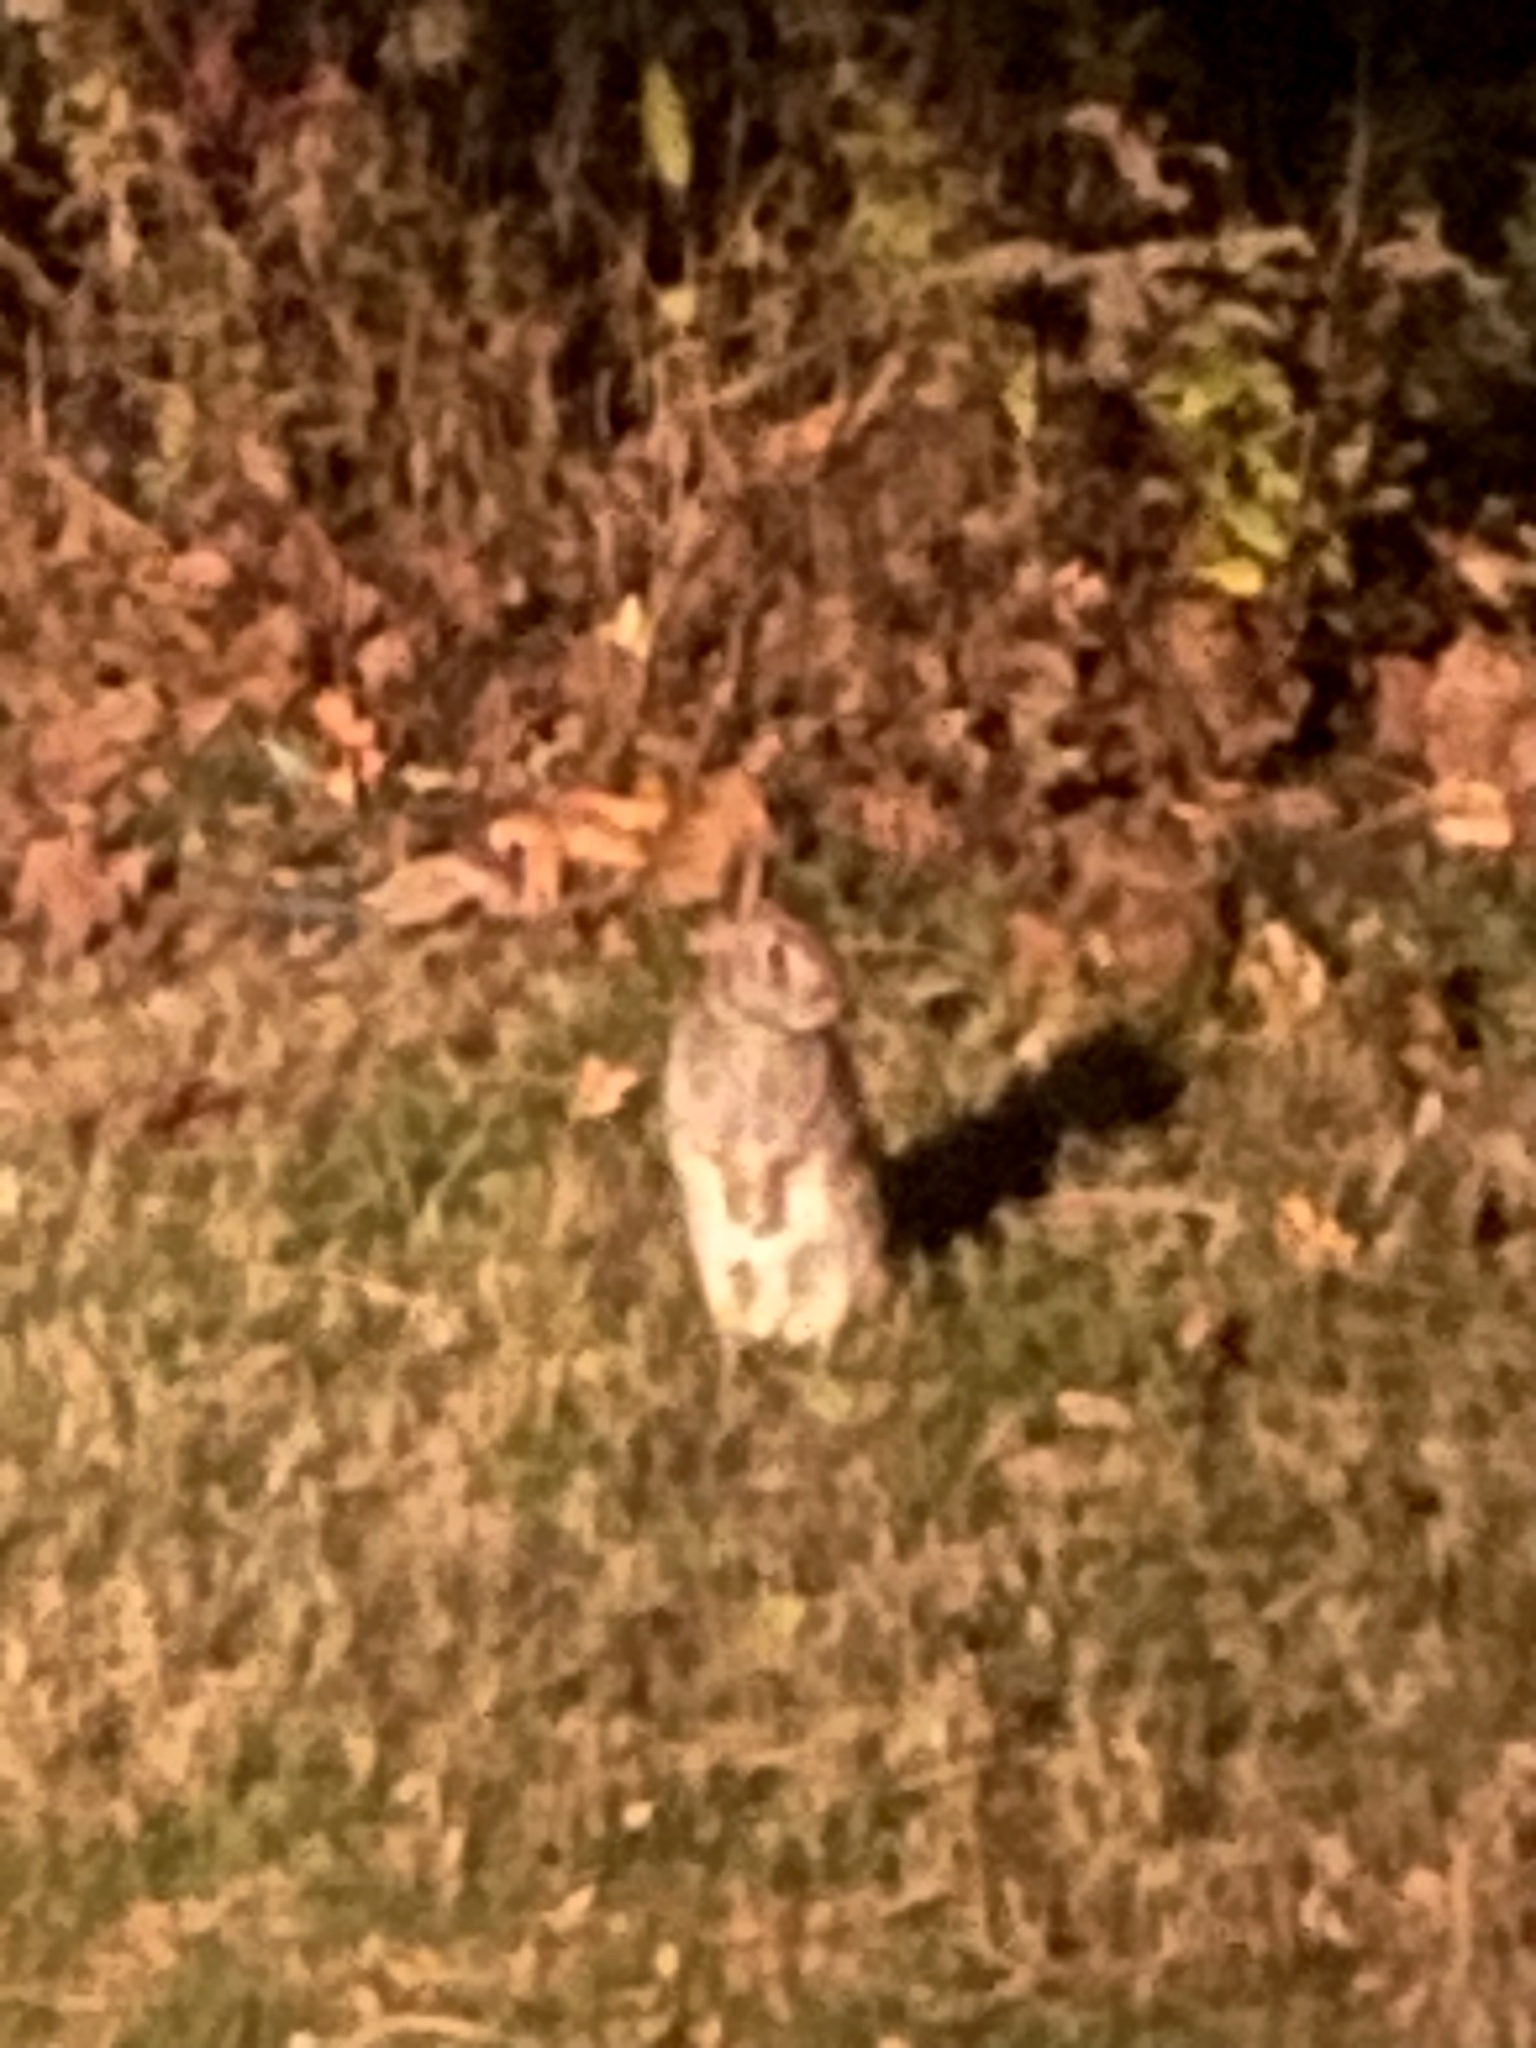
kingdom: Animalia
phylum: Chordata
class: Mammalia
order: Lagomorpha
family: Leporidae
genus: Sylvilagus
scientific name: Sylvilagus floridanus
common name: Eastern cottontail
